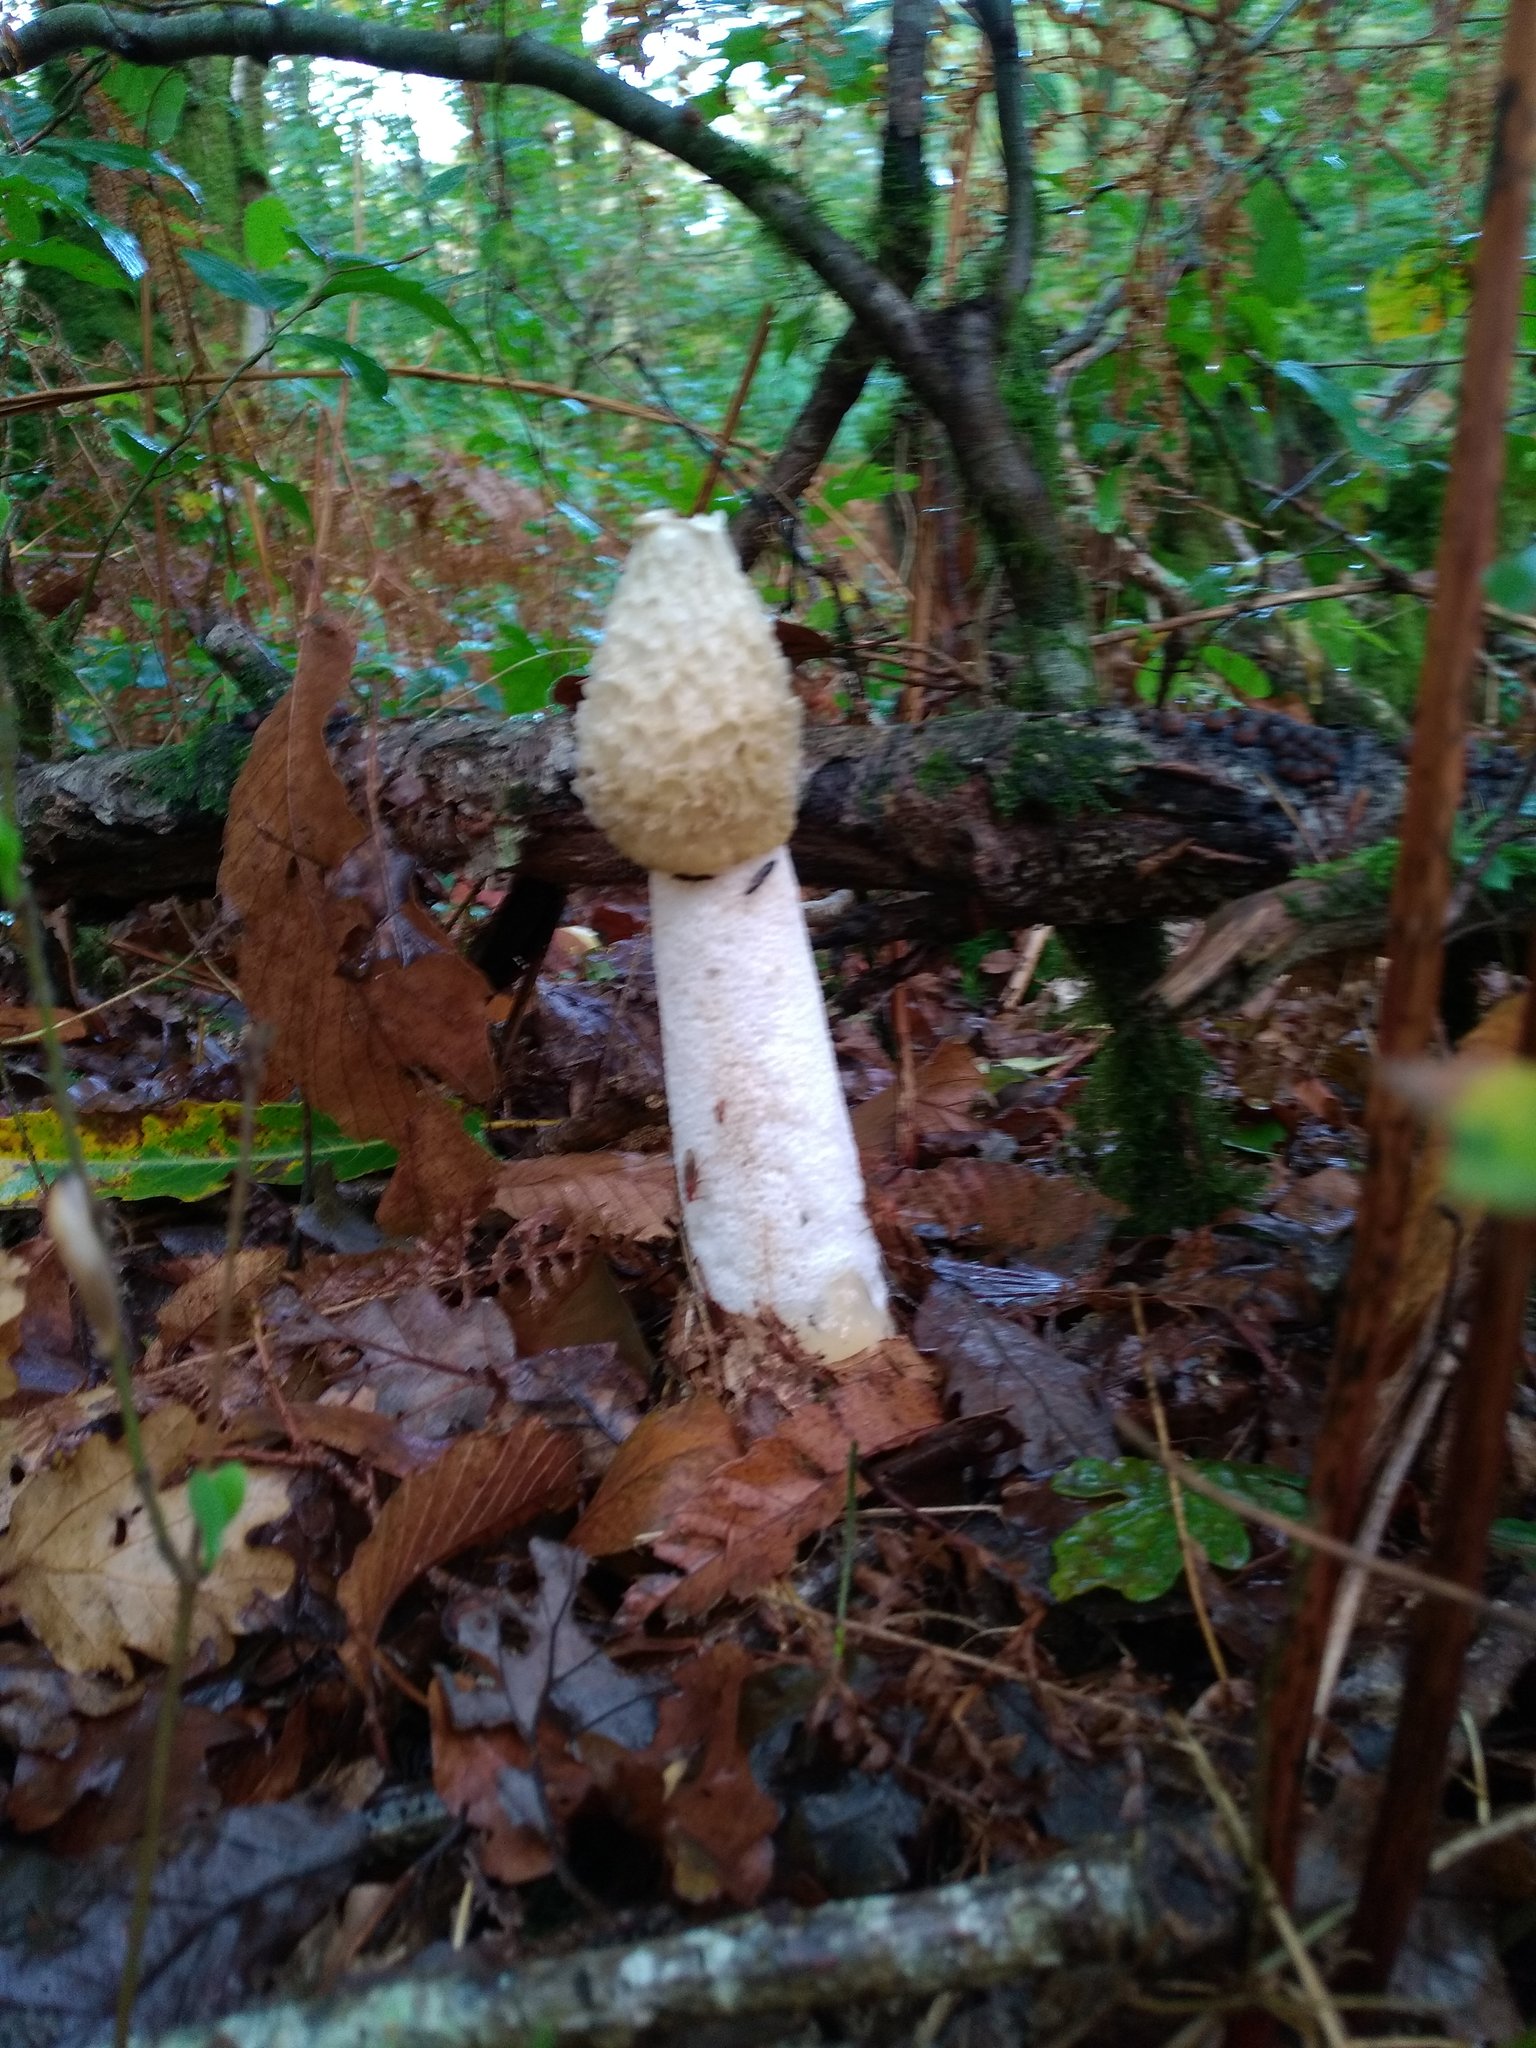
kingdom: Fungi
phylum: Basidiomycota
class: Agaricomycetes
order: Phallales
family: Phallaceae
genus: Phallus
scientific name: Phallus impudicus
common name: Common stinkhorn
